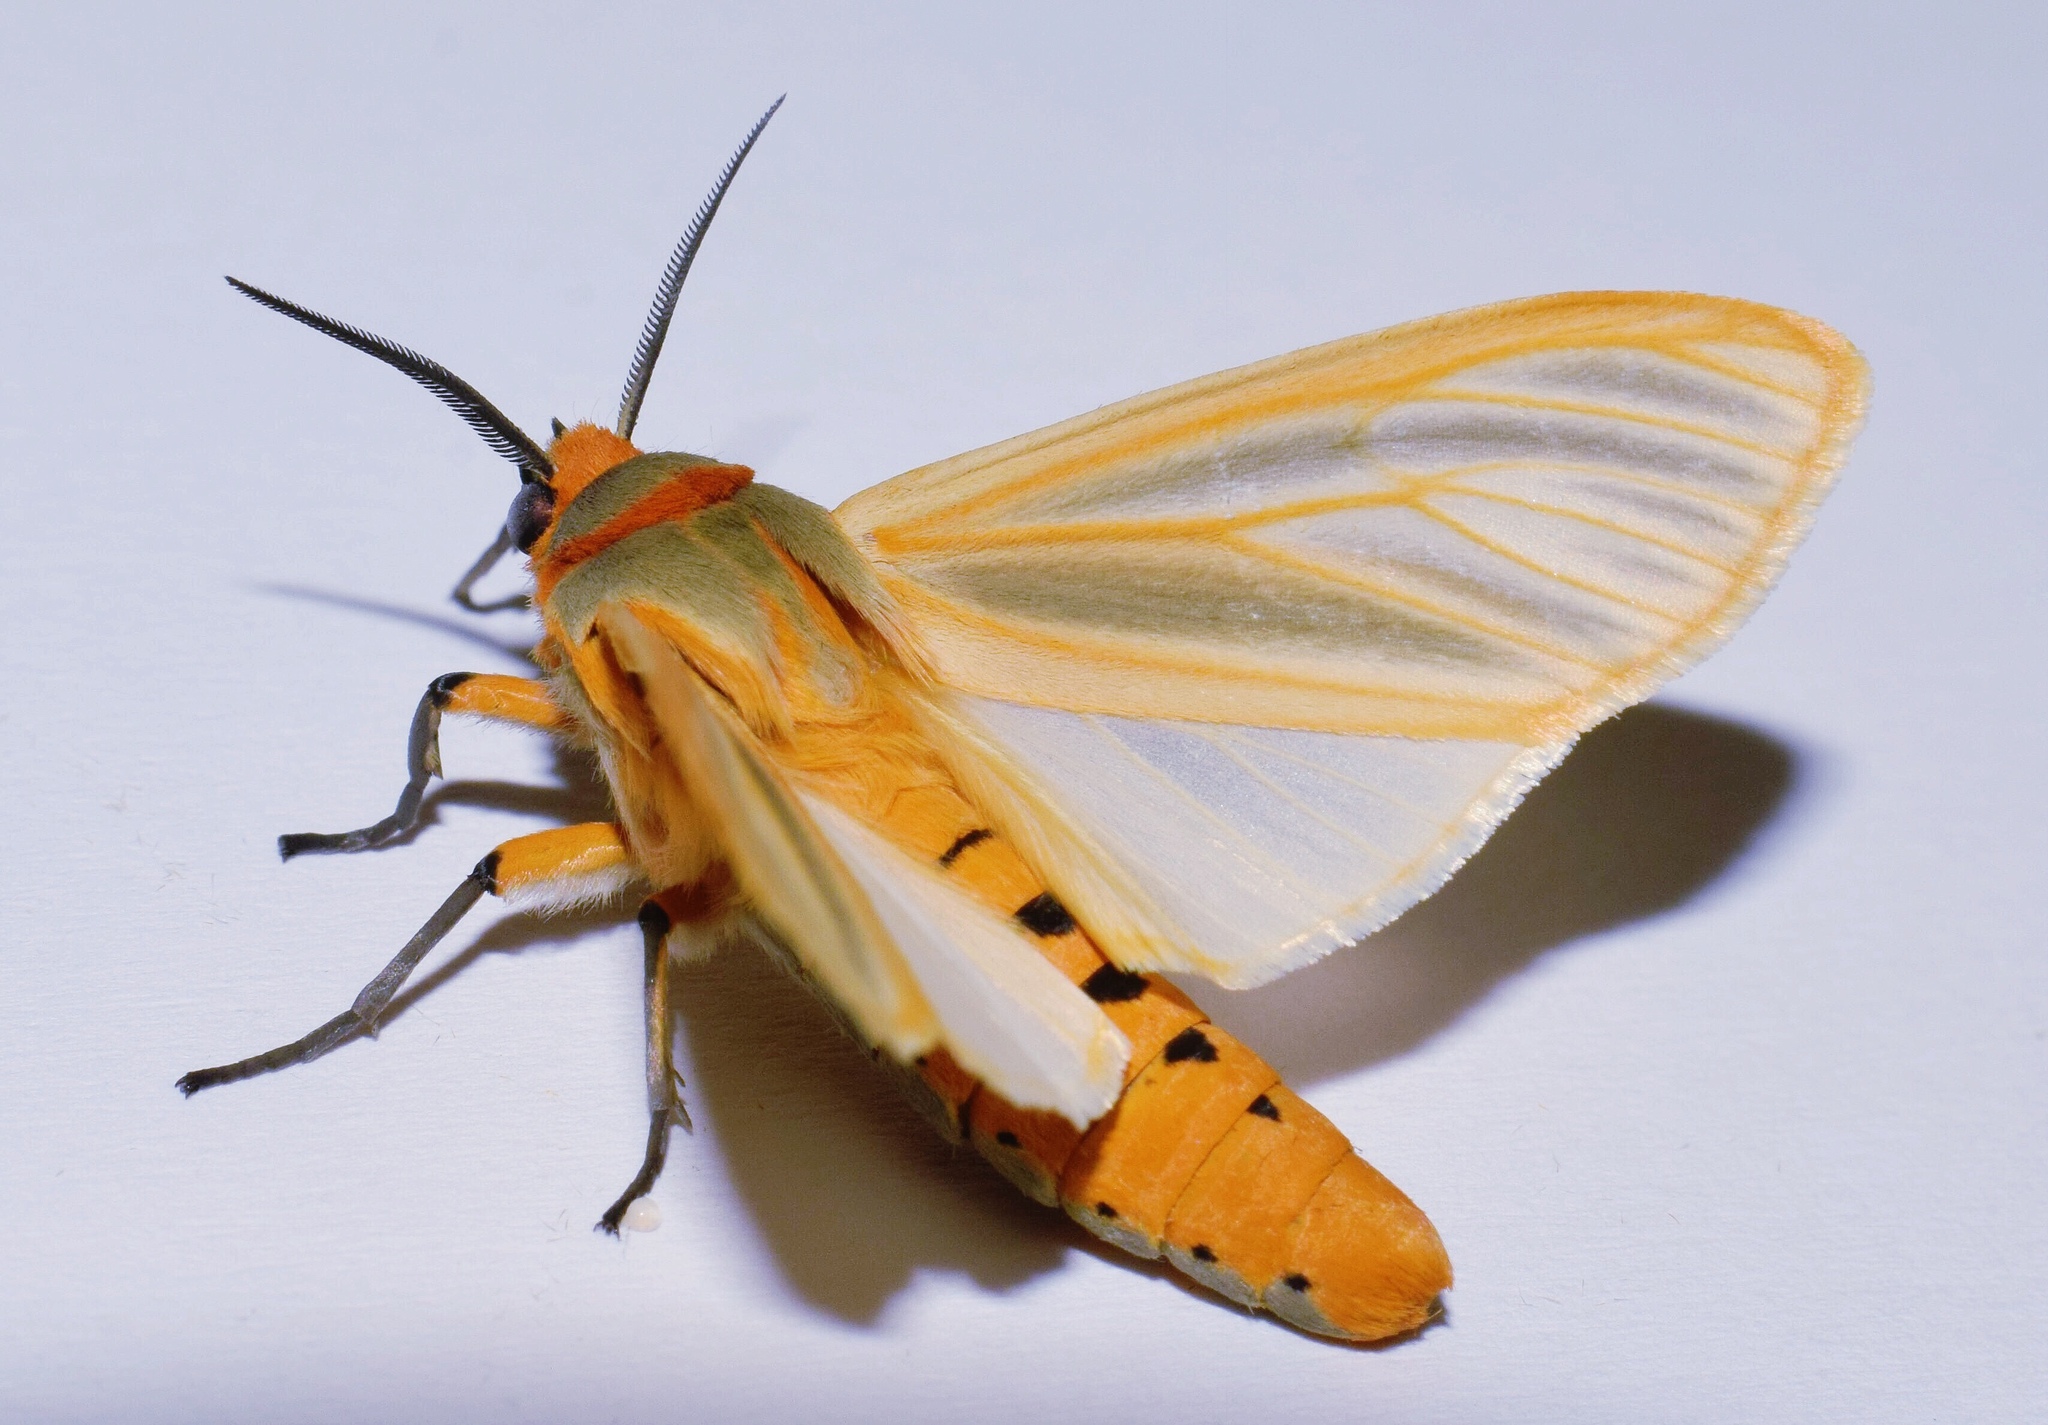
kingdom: Animalia
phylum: Arthropoda
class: Insecta
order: Lepidoptera
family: Erebidae
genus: Afromurzinia
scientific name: Afromurzinia lutescens
